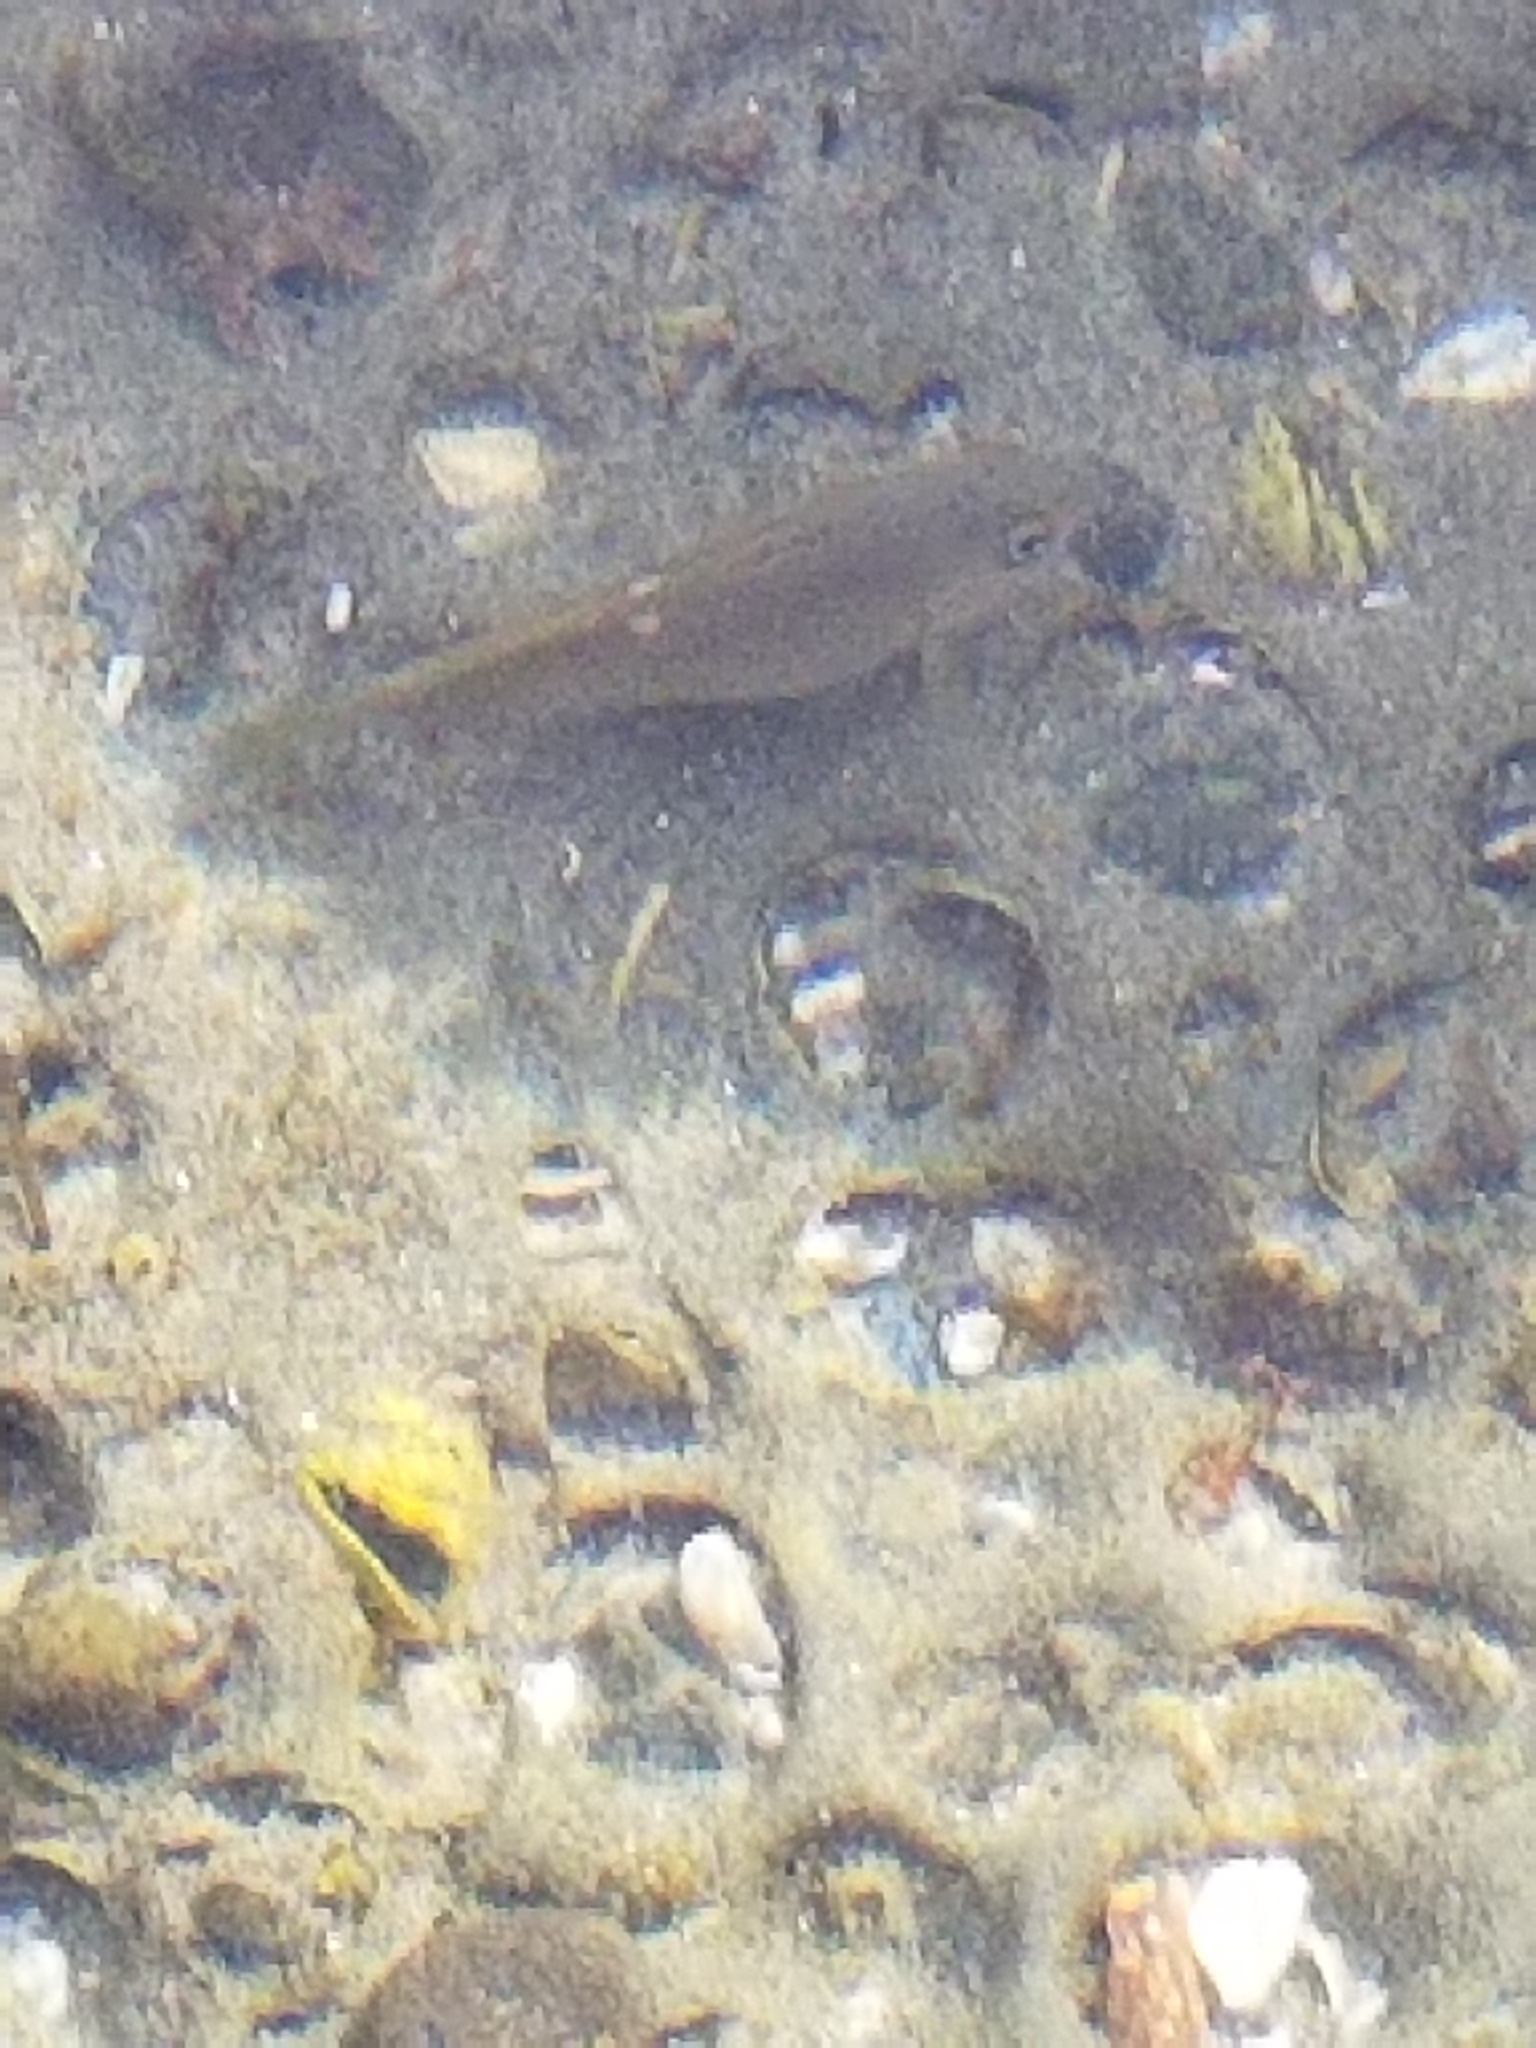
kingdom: Animalia
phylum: Chordata
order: Perciformes
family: Kyphosidae
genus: Girella
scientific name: Girella nigricans
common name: Opaleye
